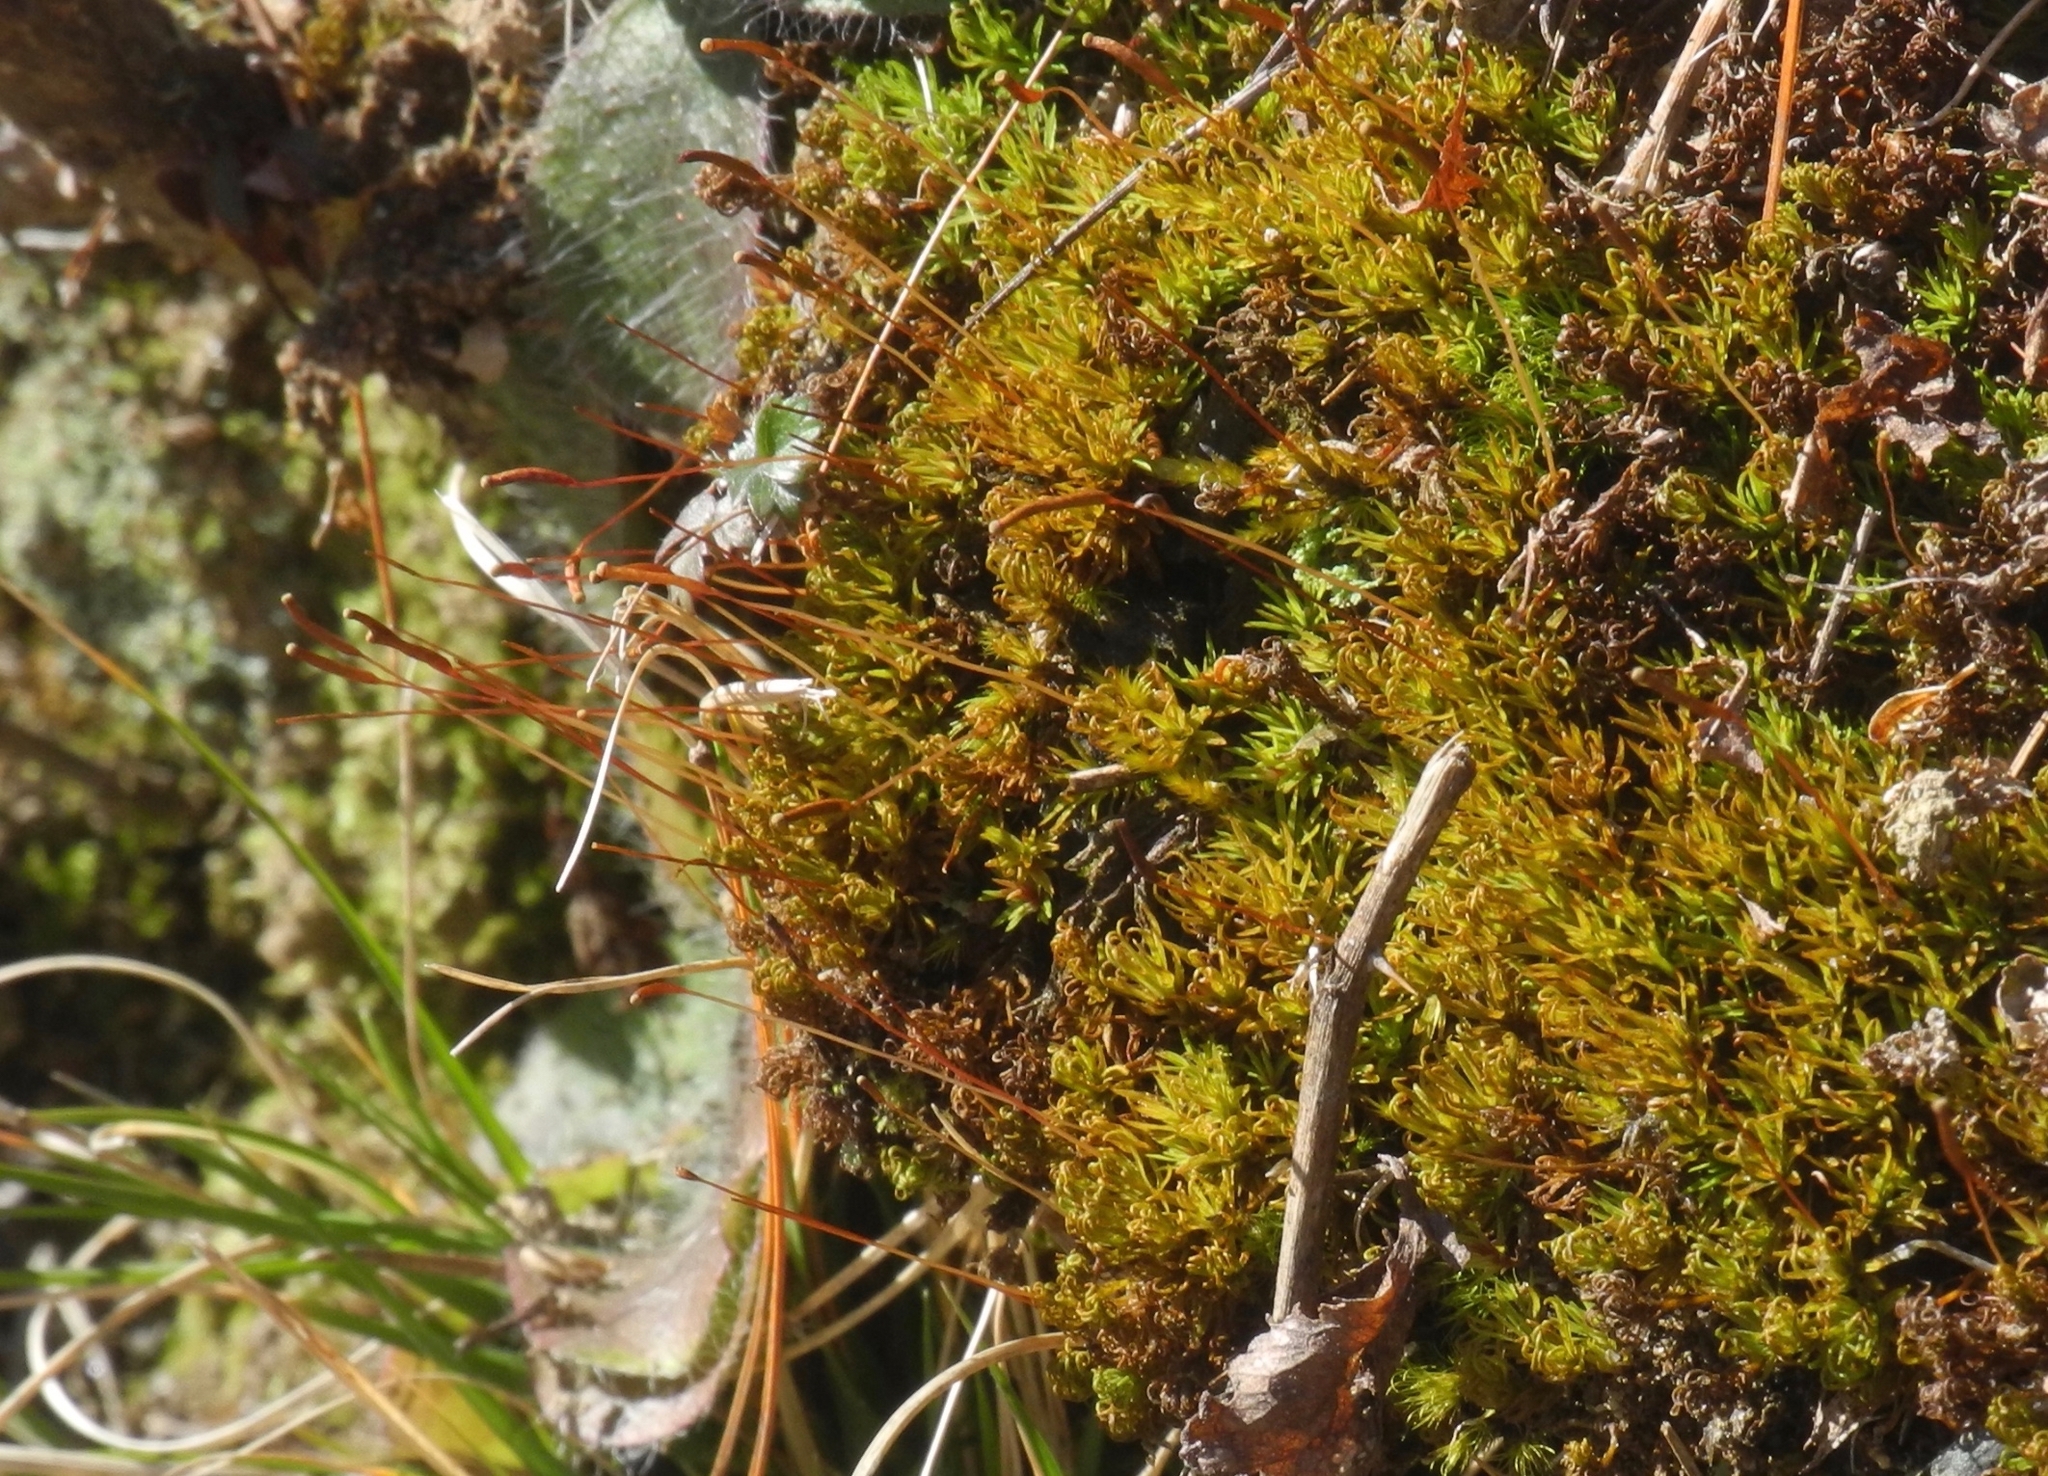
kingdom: Plantae
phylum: Bryophyta
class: Polytrichopsida
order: Polytrichales
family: Polytrichaceae
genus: Atrichum
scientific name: Atrichum angustatum
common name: Lesser smoothcap
